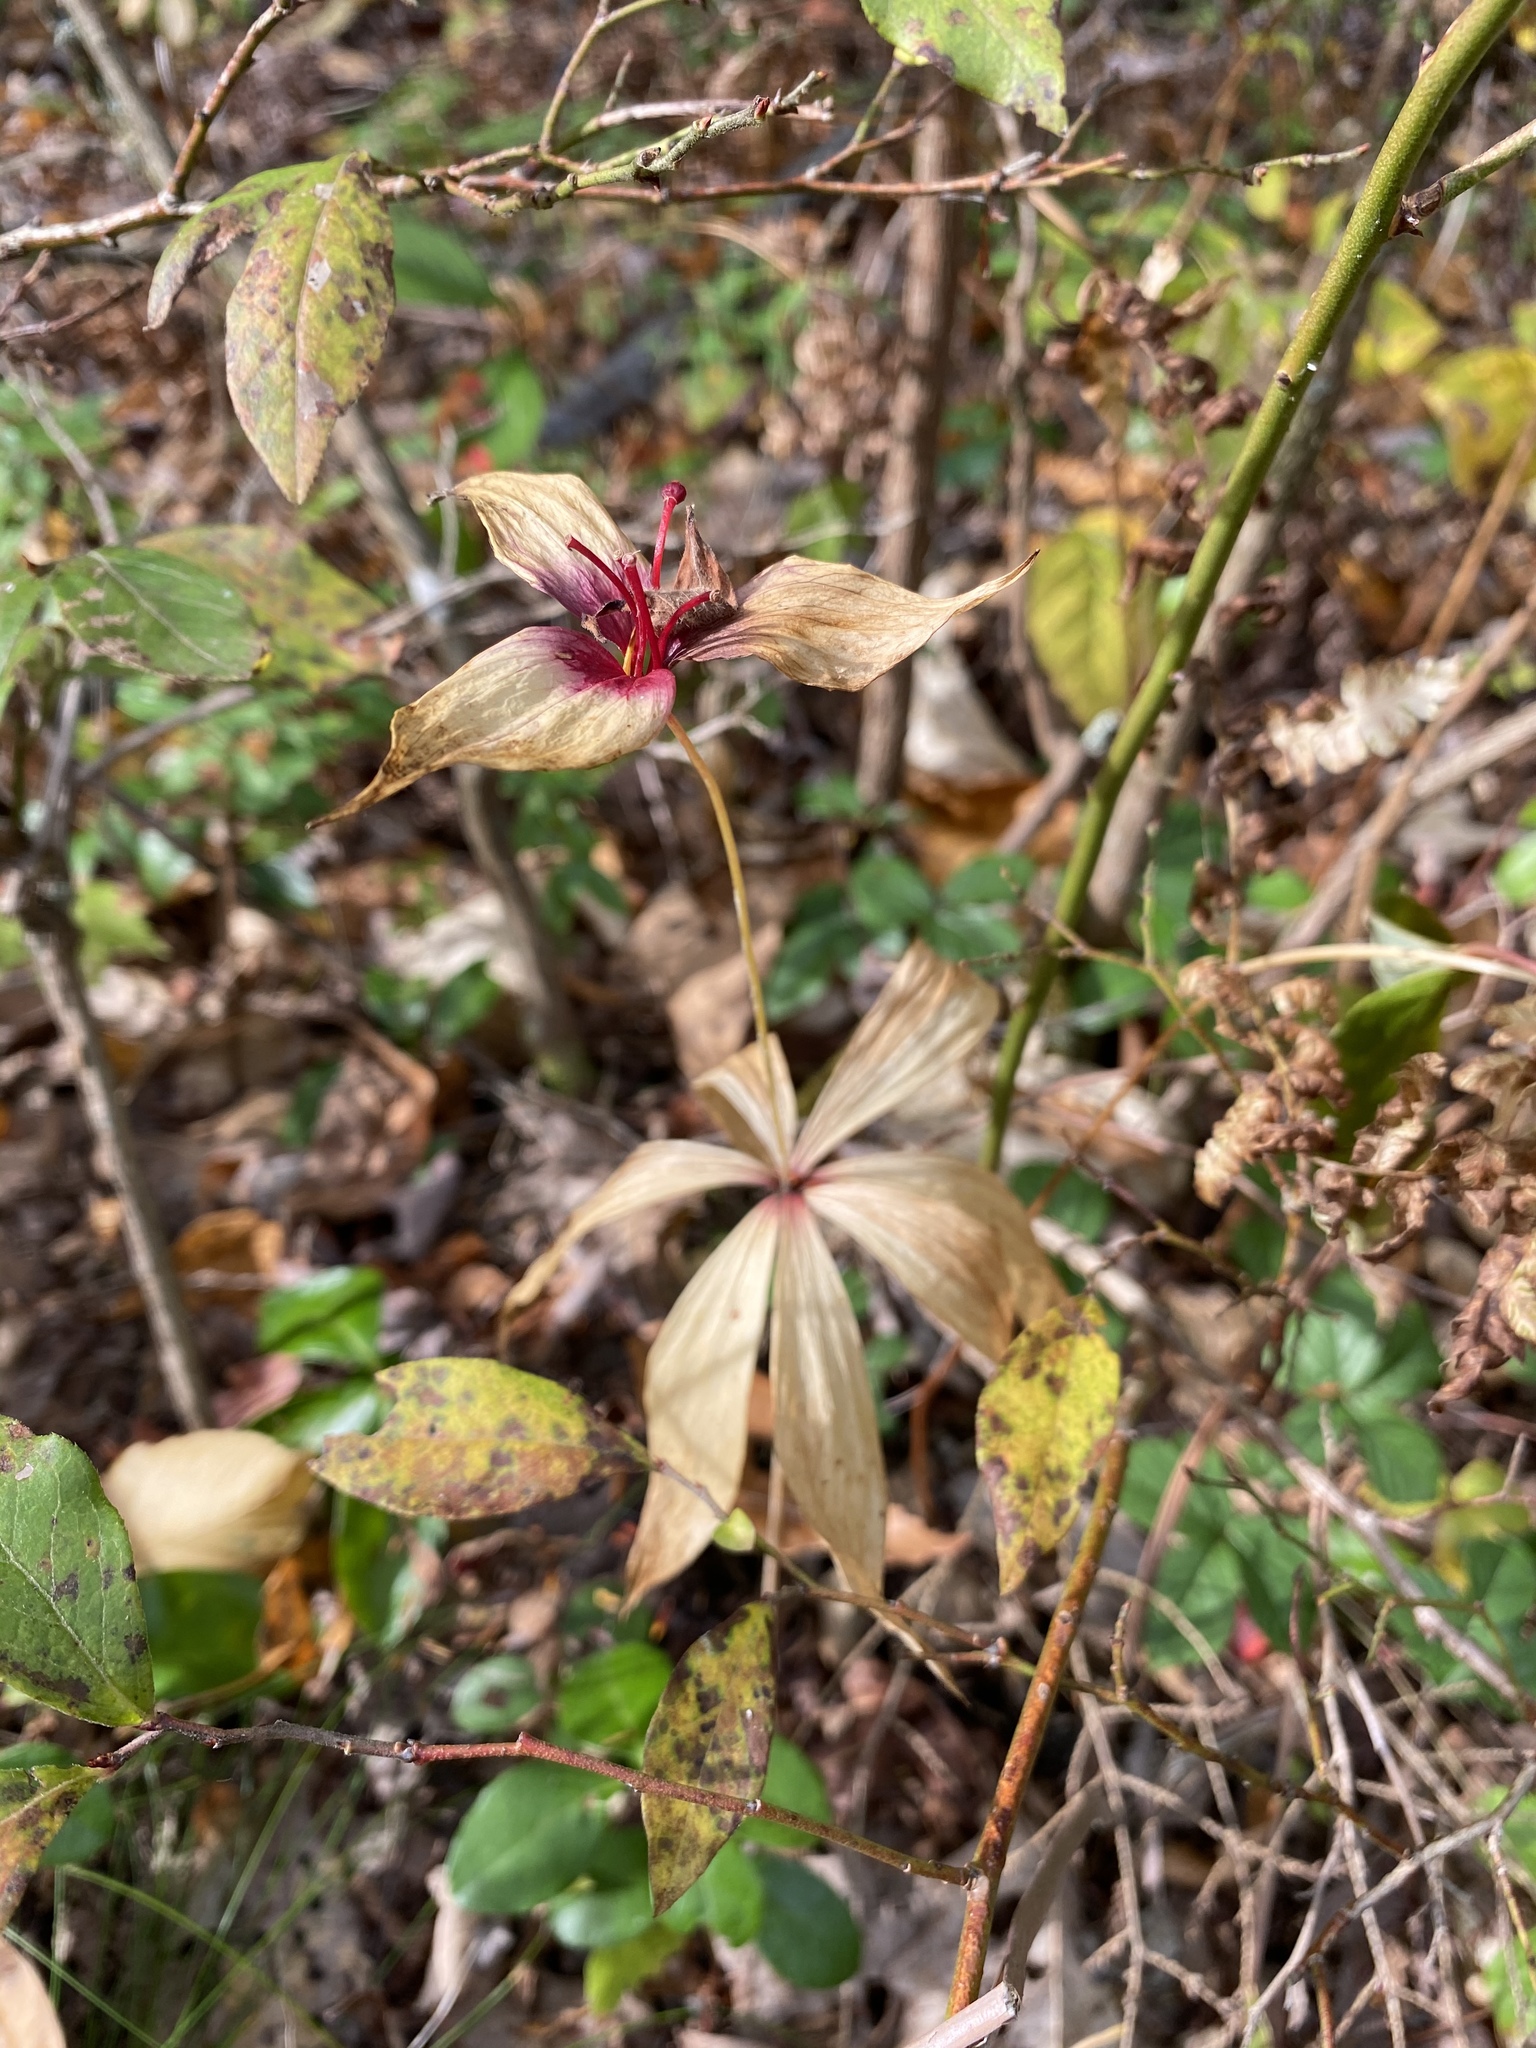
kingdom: Plantae
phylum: Tracheophyta
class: Liliopsida
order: Liliales
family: Liliaceae
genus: Medeola
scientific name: Medeola virginiana
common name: Indian cucumber-root
